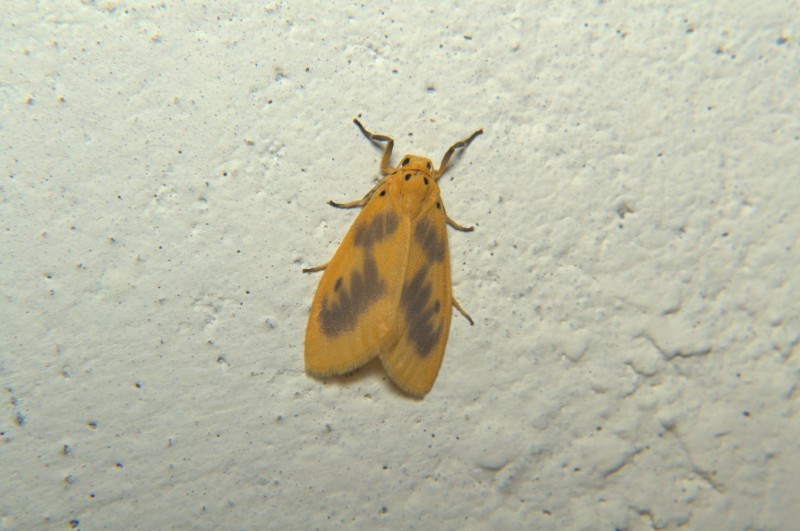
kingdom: Animalia
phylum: Arthropoda
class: Insecta
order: Lepidoptera
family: Erebidae
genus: Miltochrista
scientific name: Miltochrista undulata
